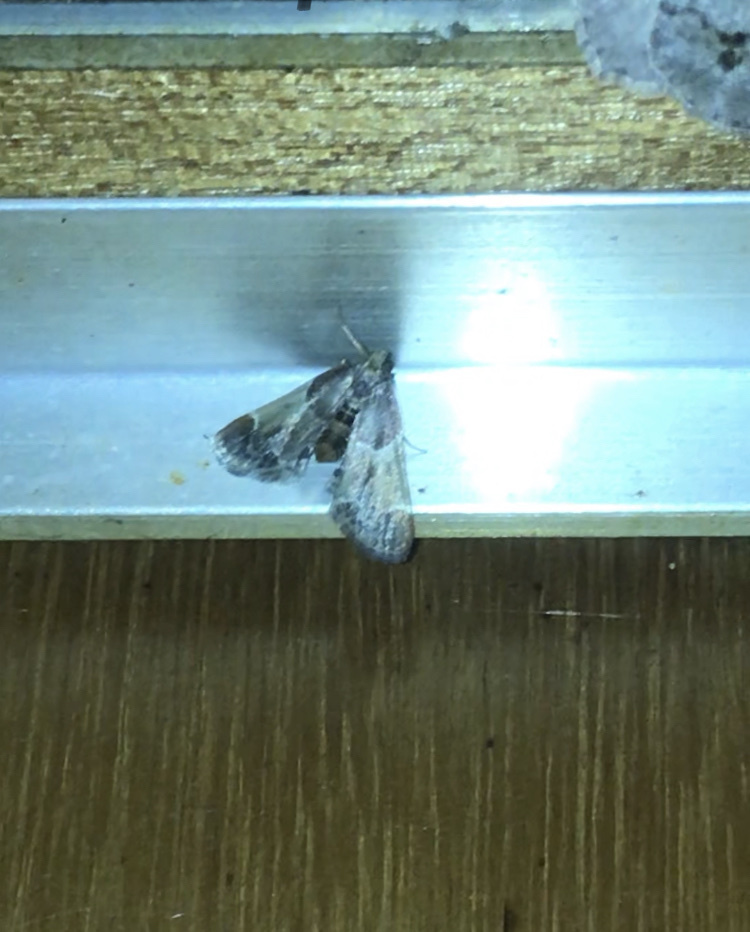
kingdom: Animalia
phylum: Arthropoda
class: Insecta
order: Lepidoptera
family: Pyralidae
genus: Pyralis
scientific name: Pyralis farinalis
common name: Meal moth
